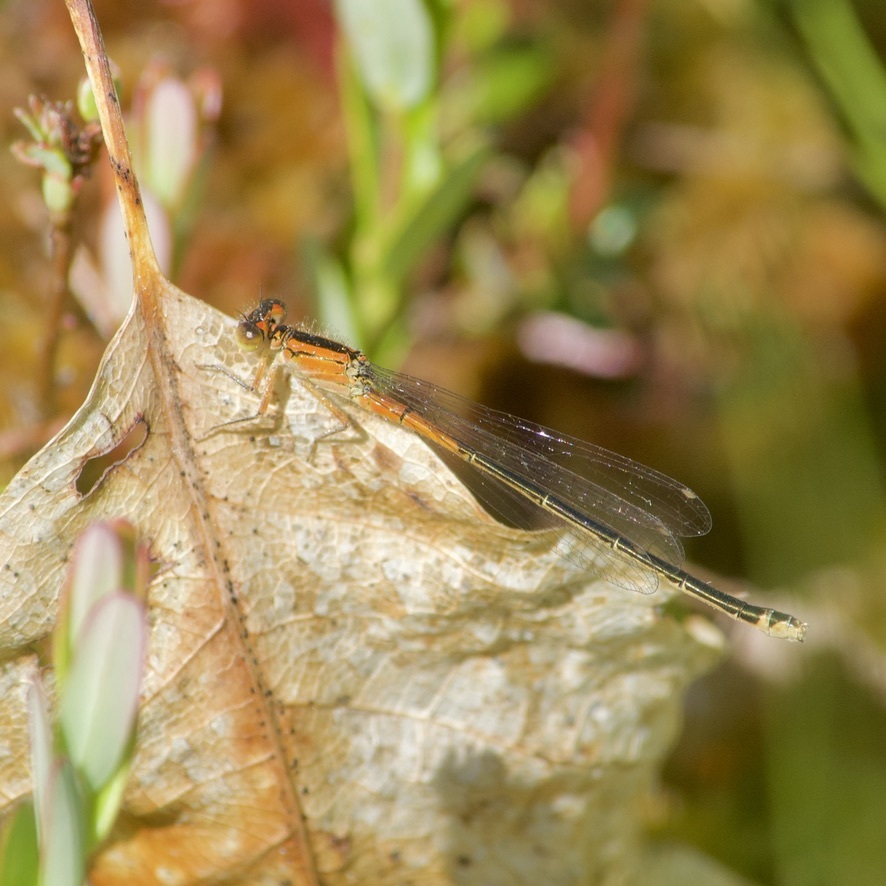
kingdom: Animalia
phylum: Arthropoda
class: Insecta
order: Odonata
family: Coenagrionidae
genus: Ischnura
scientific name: Ischnura verticalis
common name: Eastern forktail
